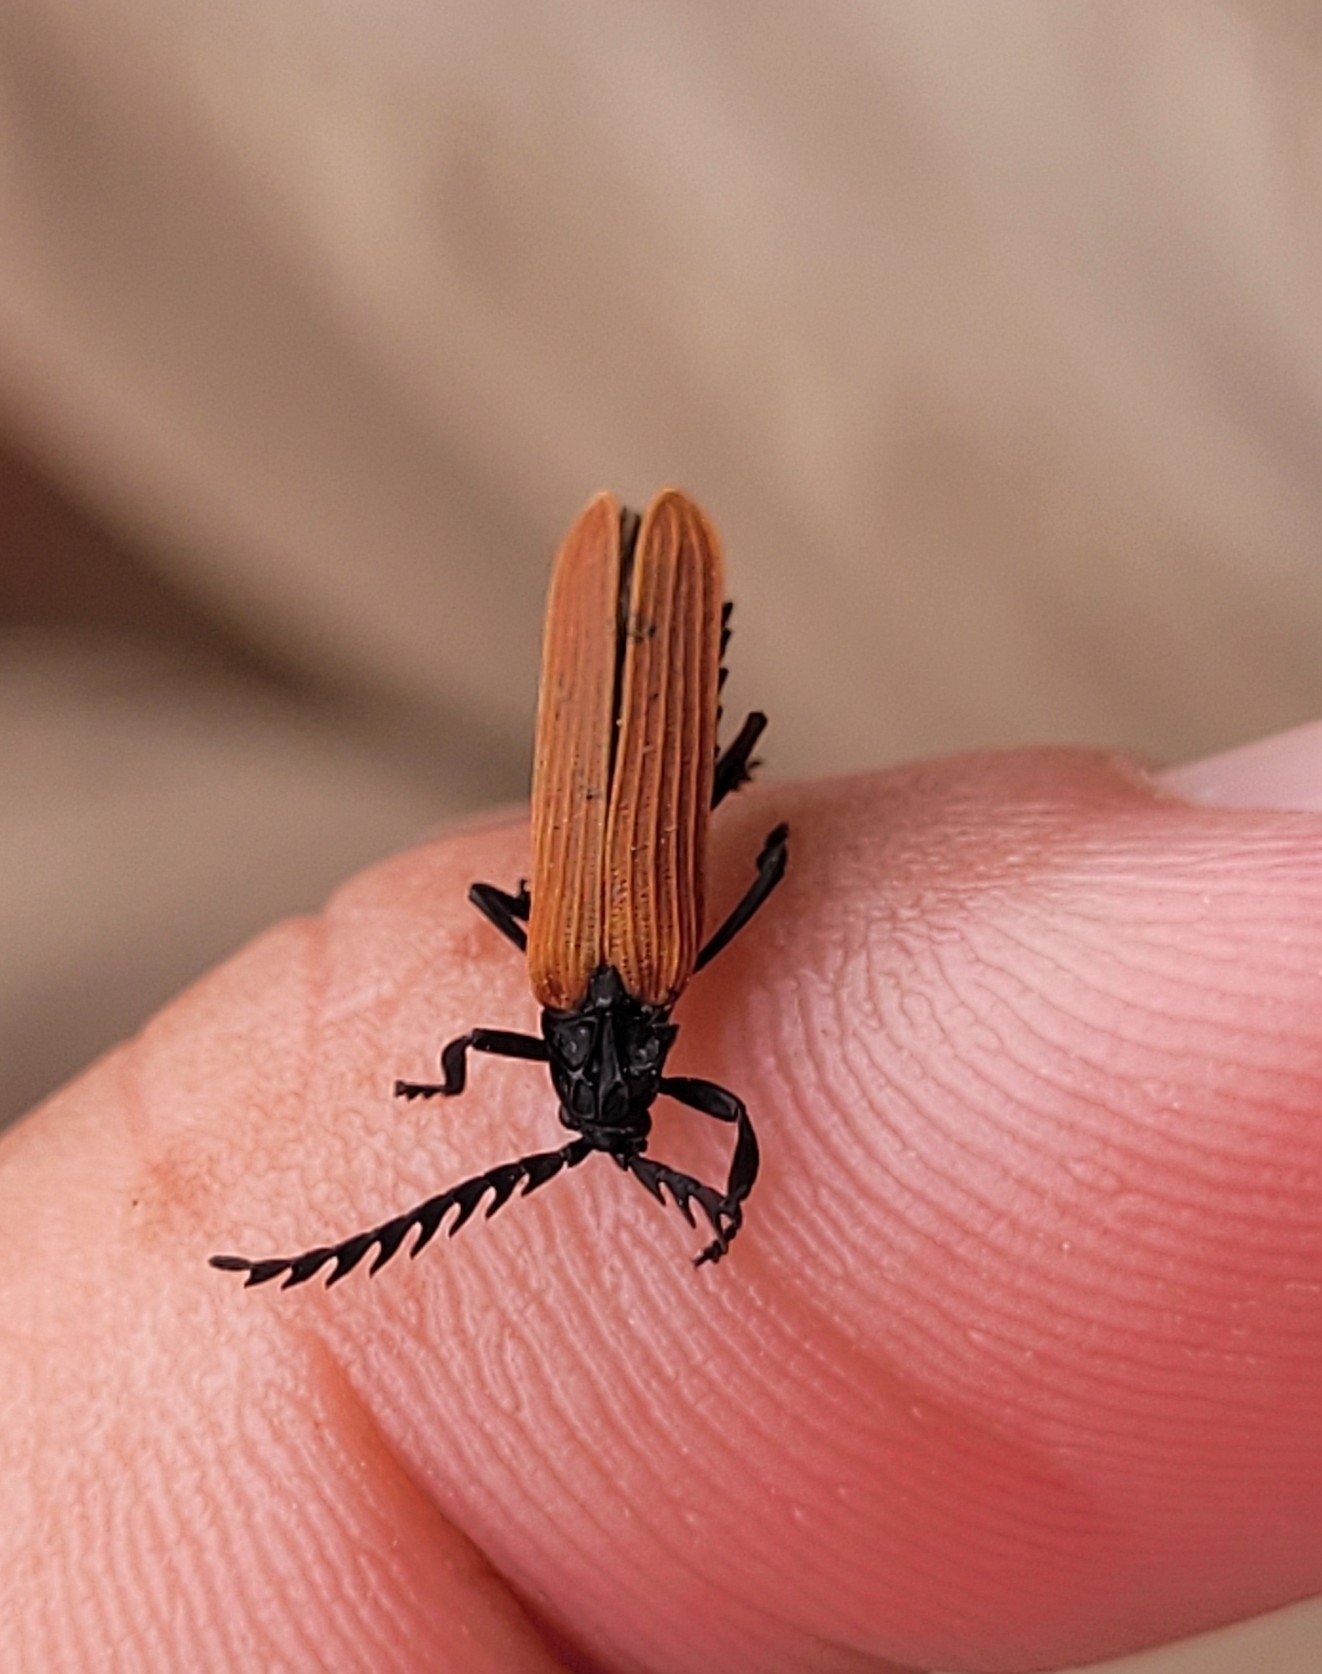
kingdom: Animalia
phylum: Arthropoda
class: Insecta
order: Coleoptera
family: Lycidae
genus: Porrostoma
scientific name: Porrostoma rufipenne
